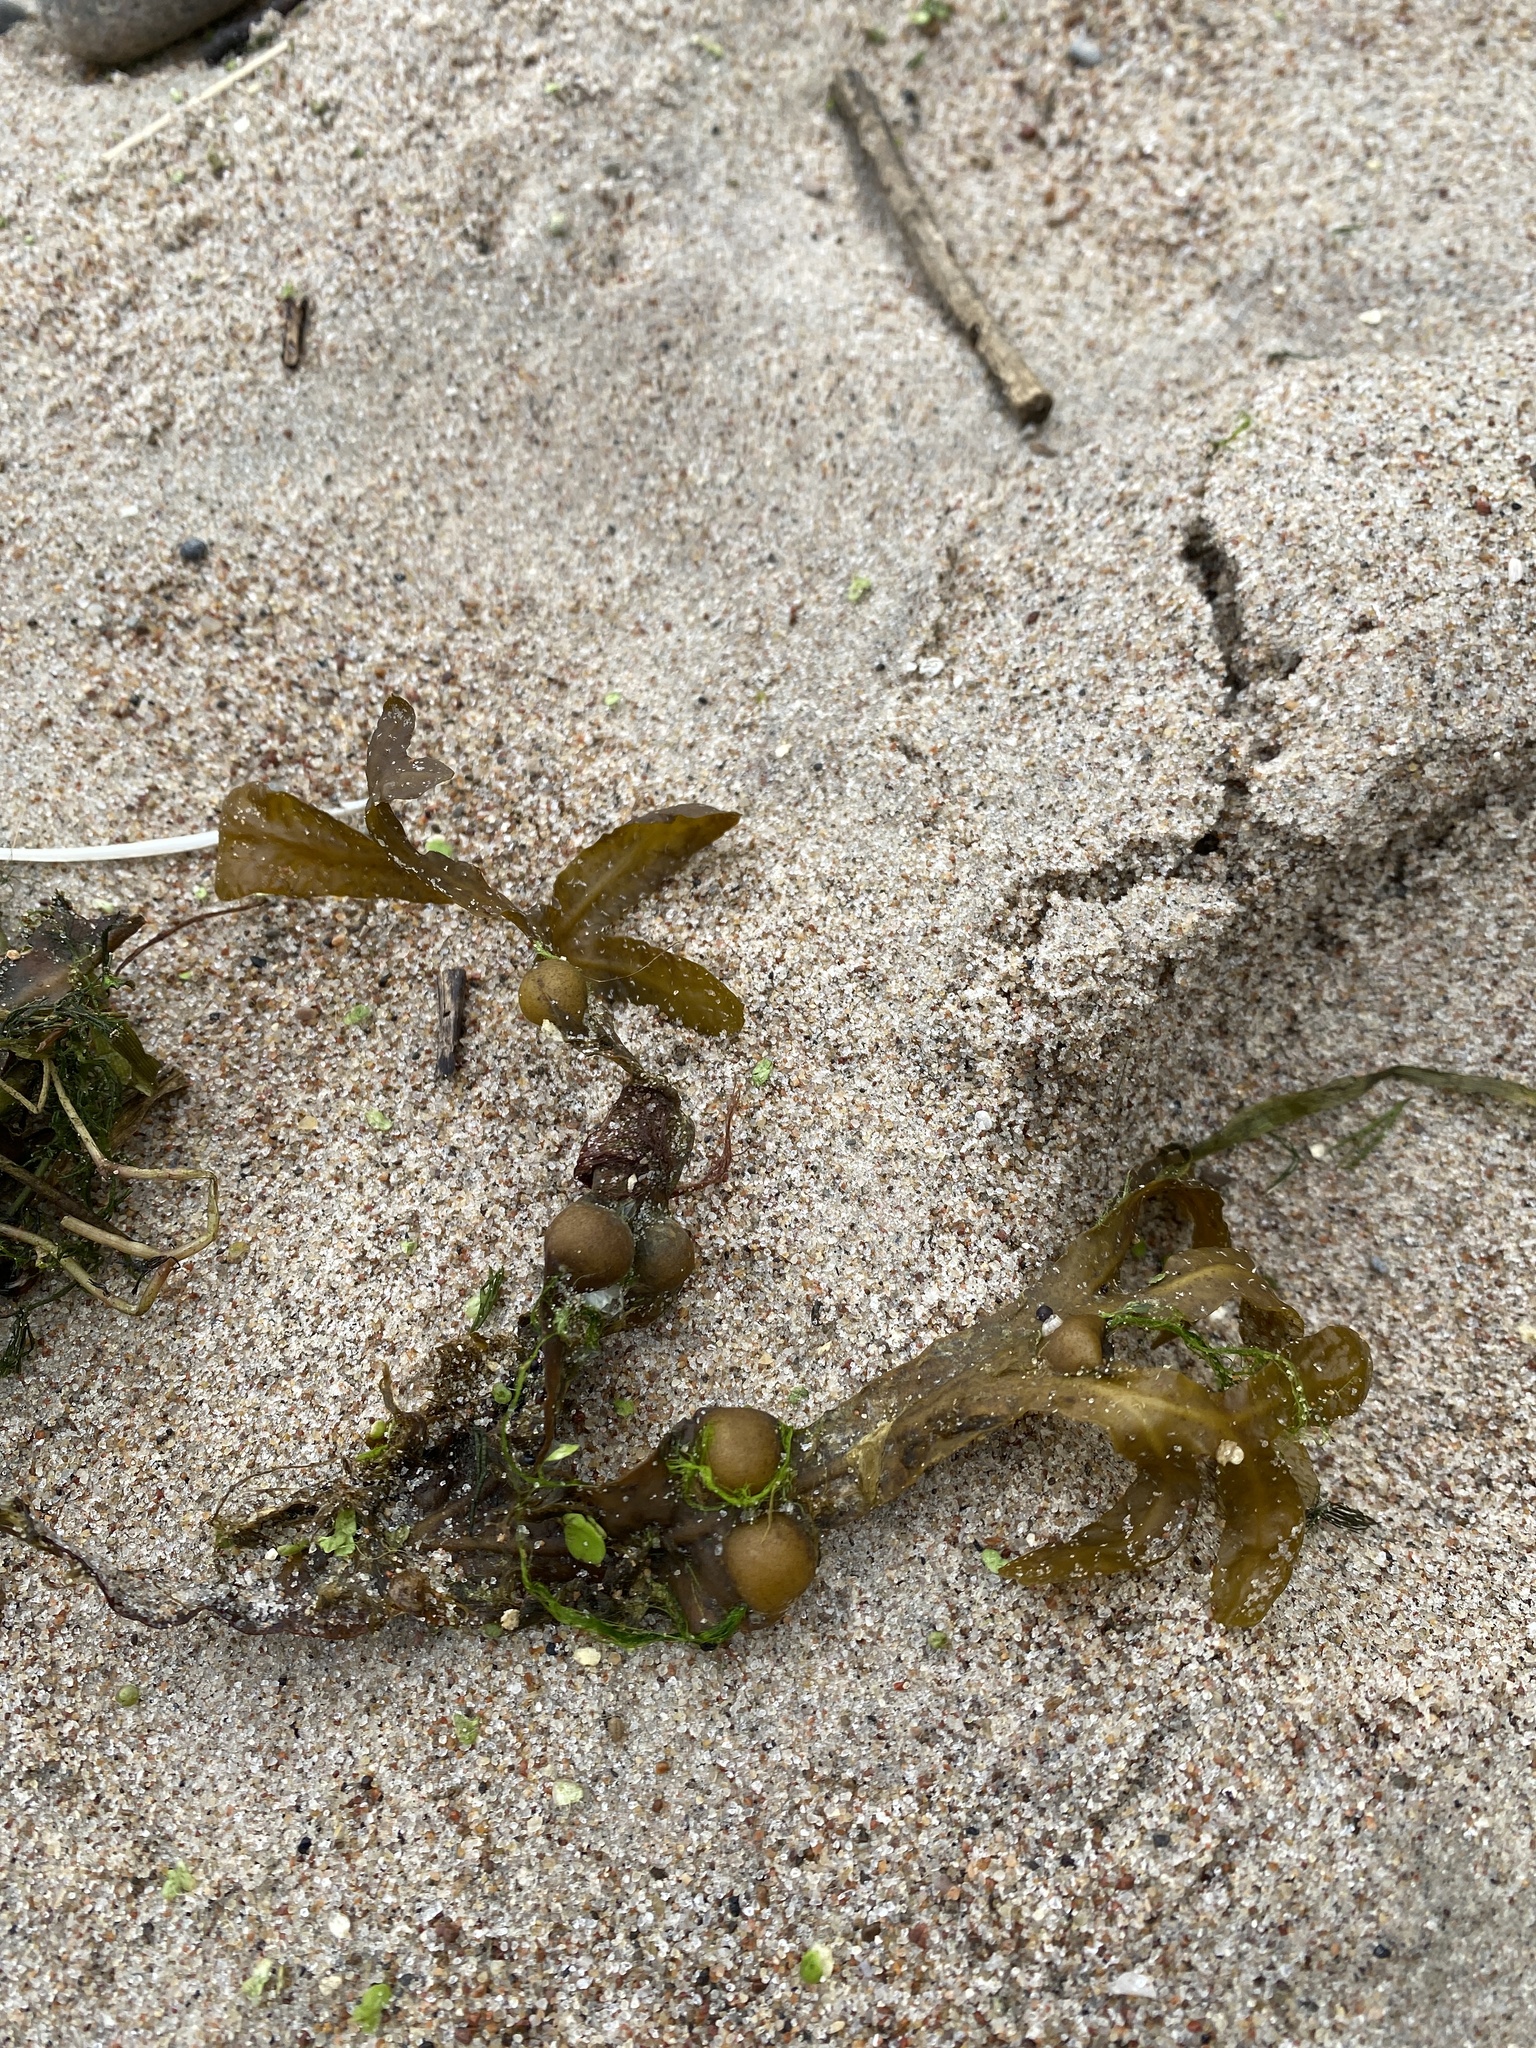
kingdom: Chromista
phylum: Ochrophyta
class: Phaeophyceae
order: Fucales
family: Fucaceae
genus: Fucus
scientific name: Fucus vesiculosus
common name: Bladder wrack
